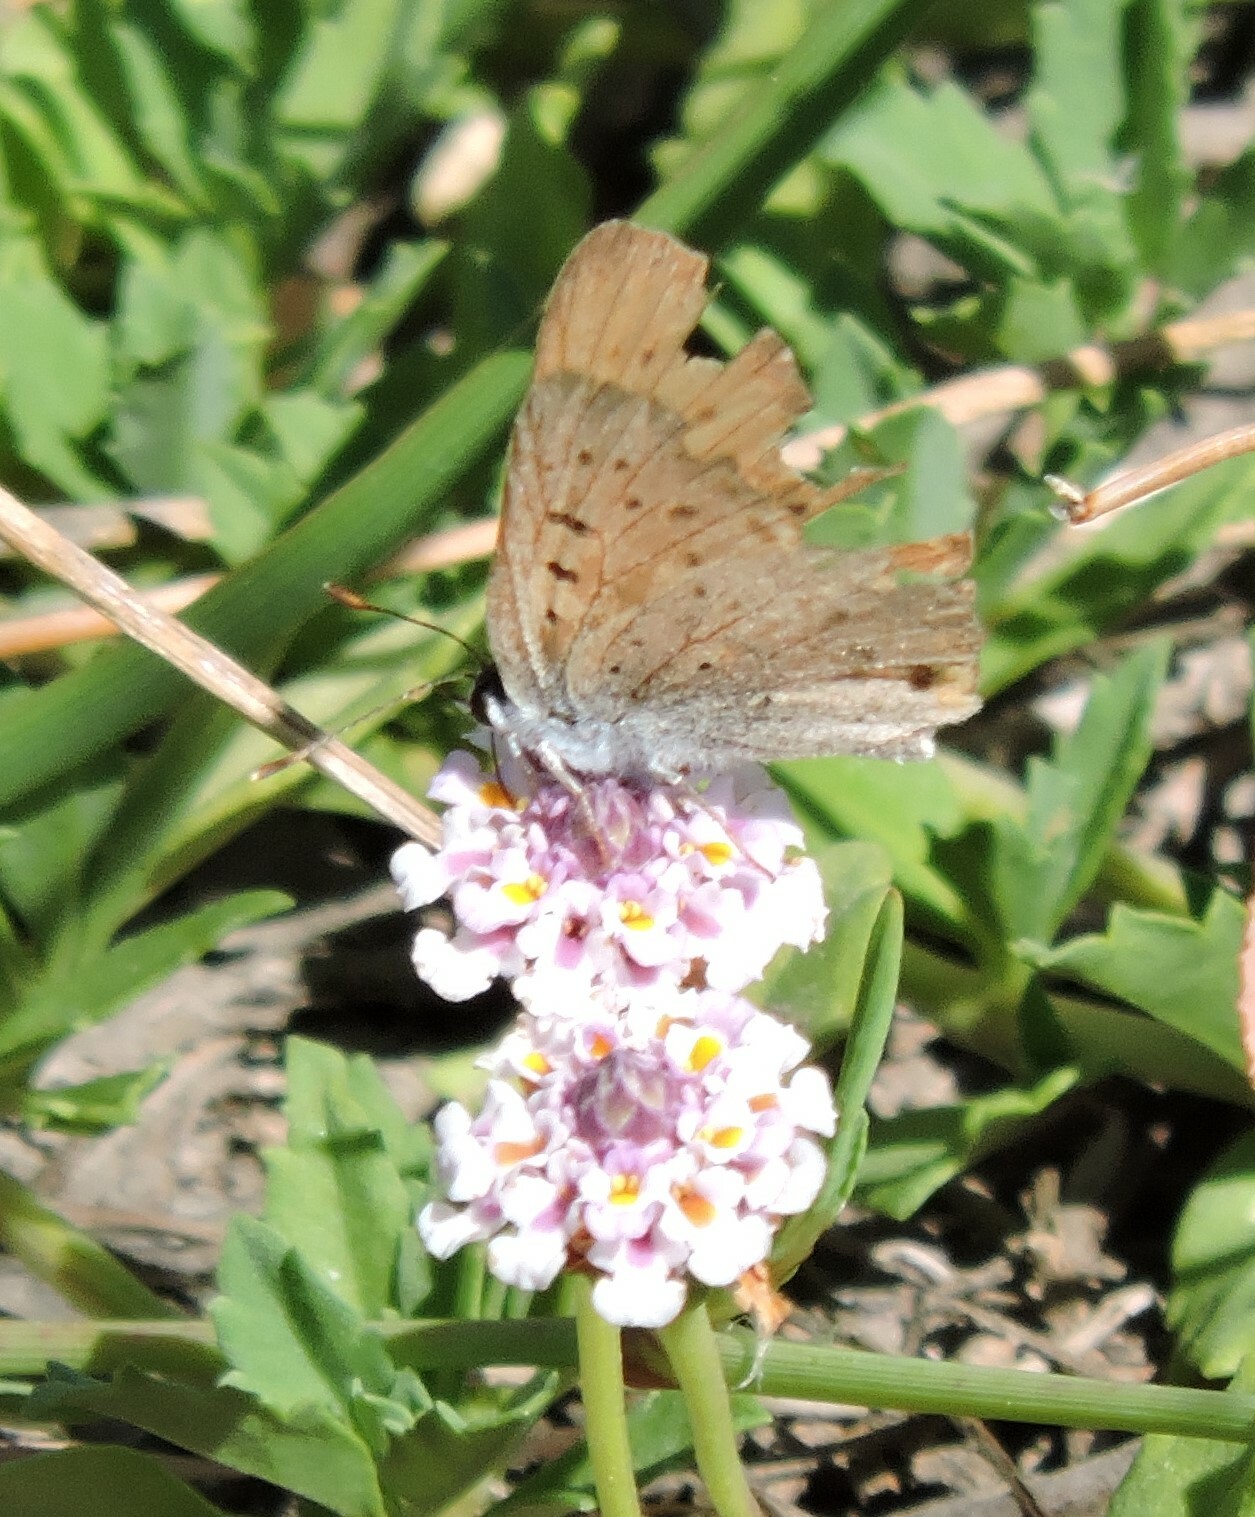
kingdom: Animalia
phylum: Arthropoda
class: Insecta
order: Lepidoptera
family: Lycaenidae
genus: Tharsalea
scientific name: Tharsalea helloides
